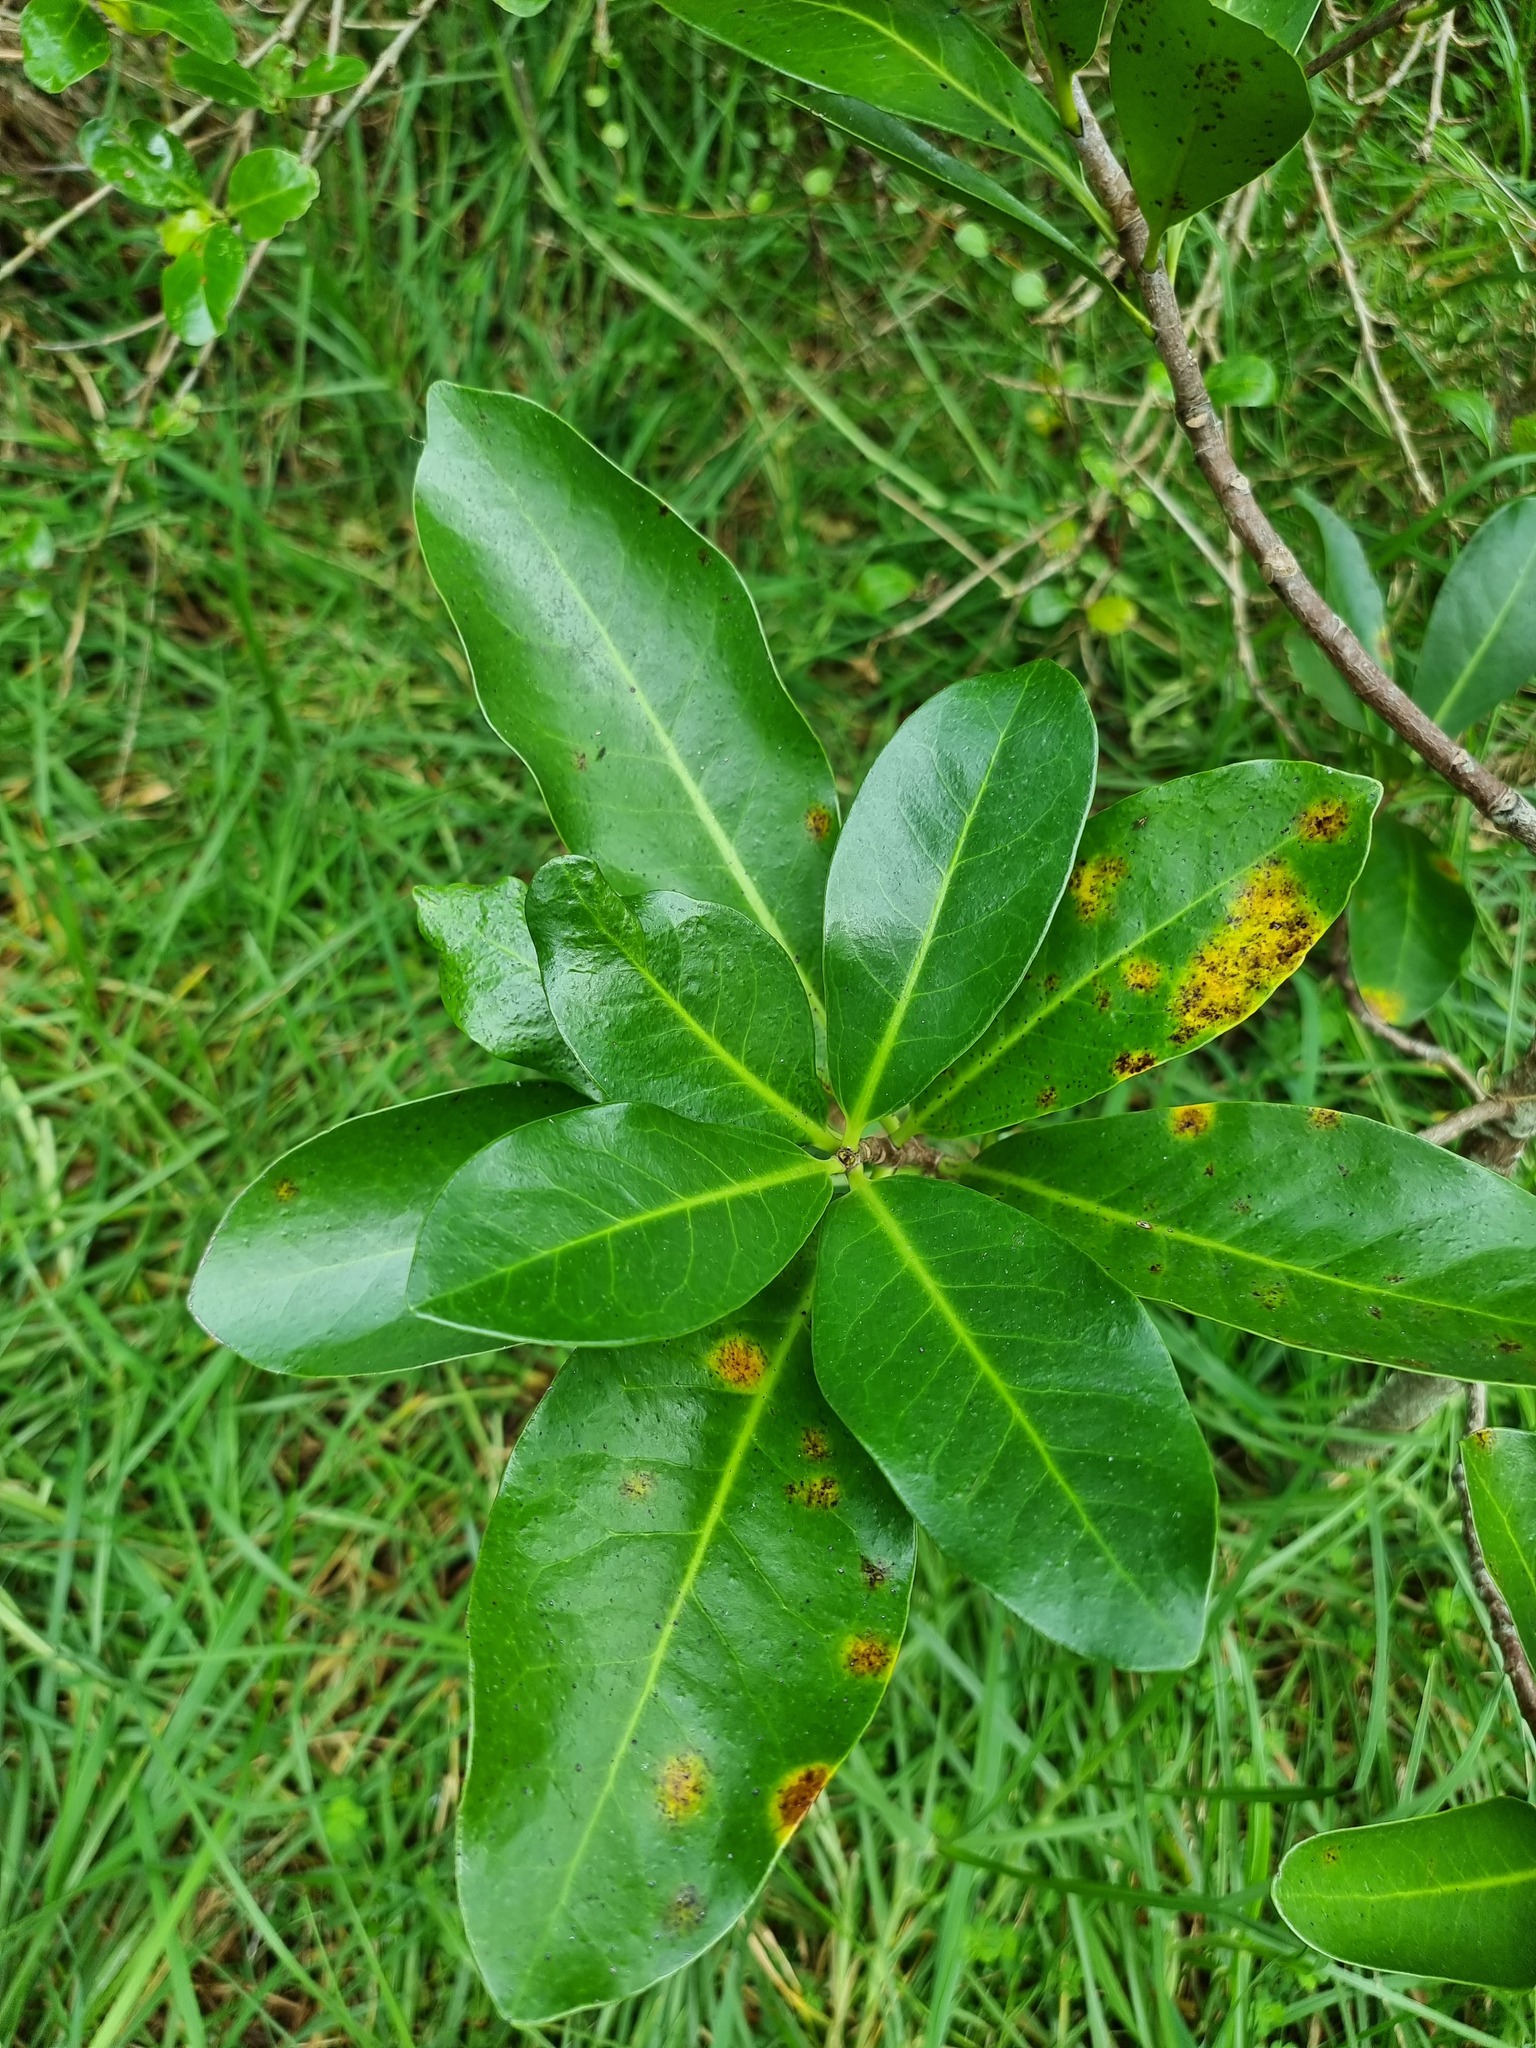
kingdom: Plantae
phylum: Tracheophyta
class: Magnoliopsida
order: Cucurbitales
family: Corynocarpaceae
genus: Corynocarpus
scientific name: Corynocarpus laevigatus
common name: New zealand laurel
